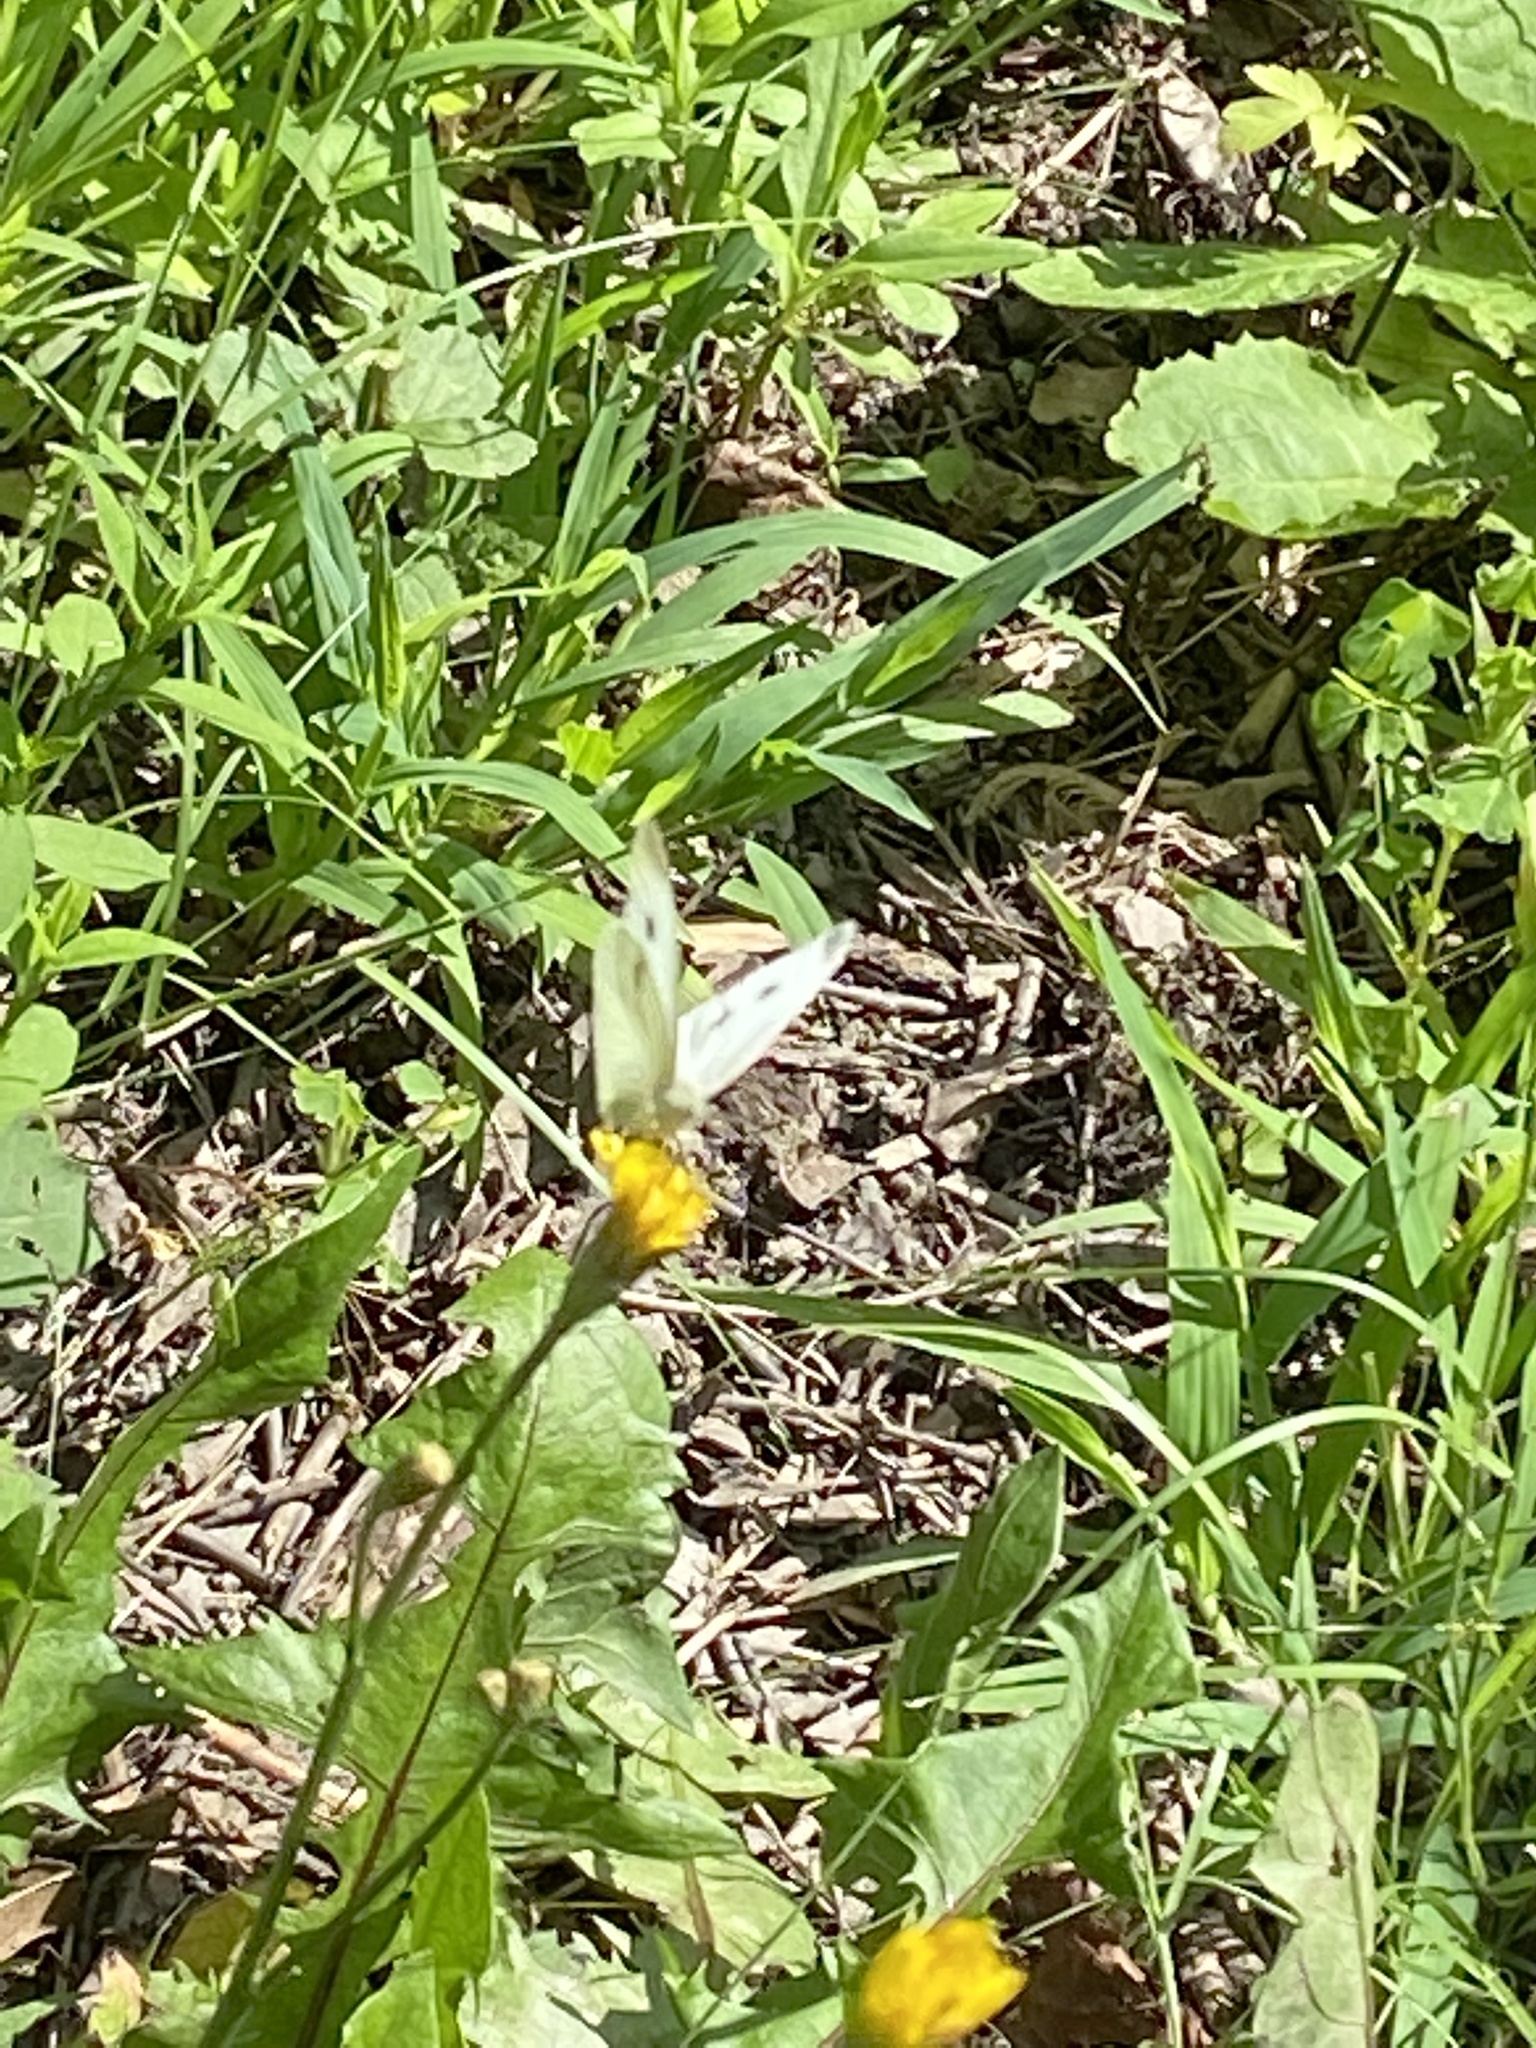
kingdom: Animalia
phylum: Arthropoda
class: Insecta
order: Lepidoptera
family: Pieridae
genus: Pieris
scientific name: Pieris rapae
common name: Small white
